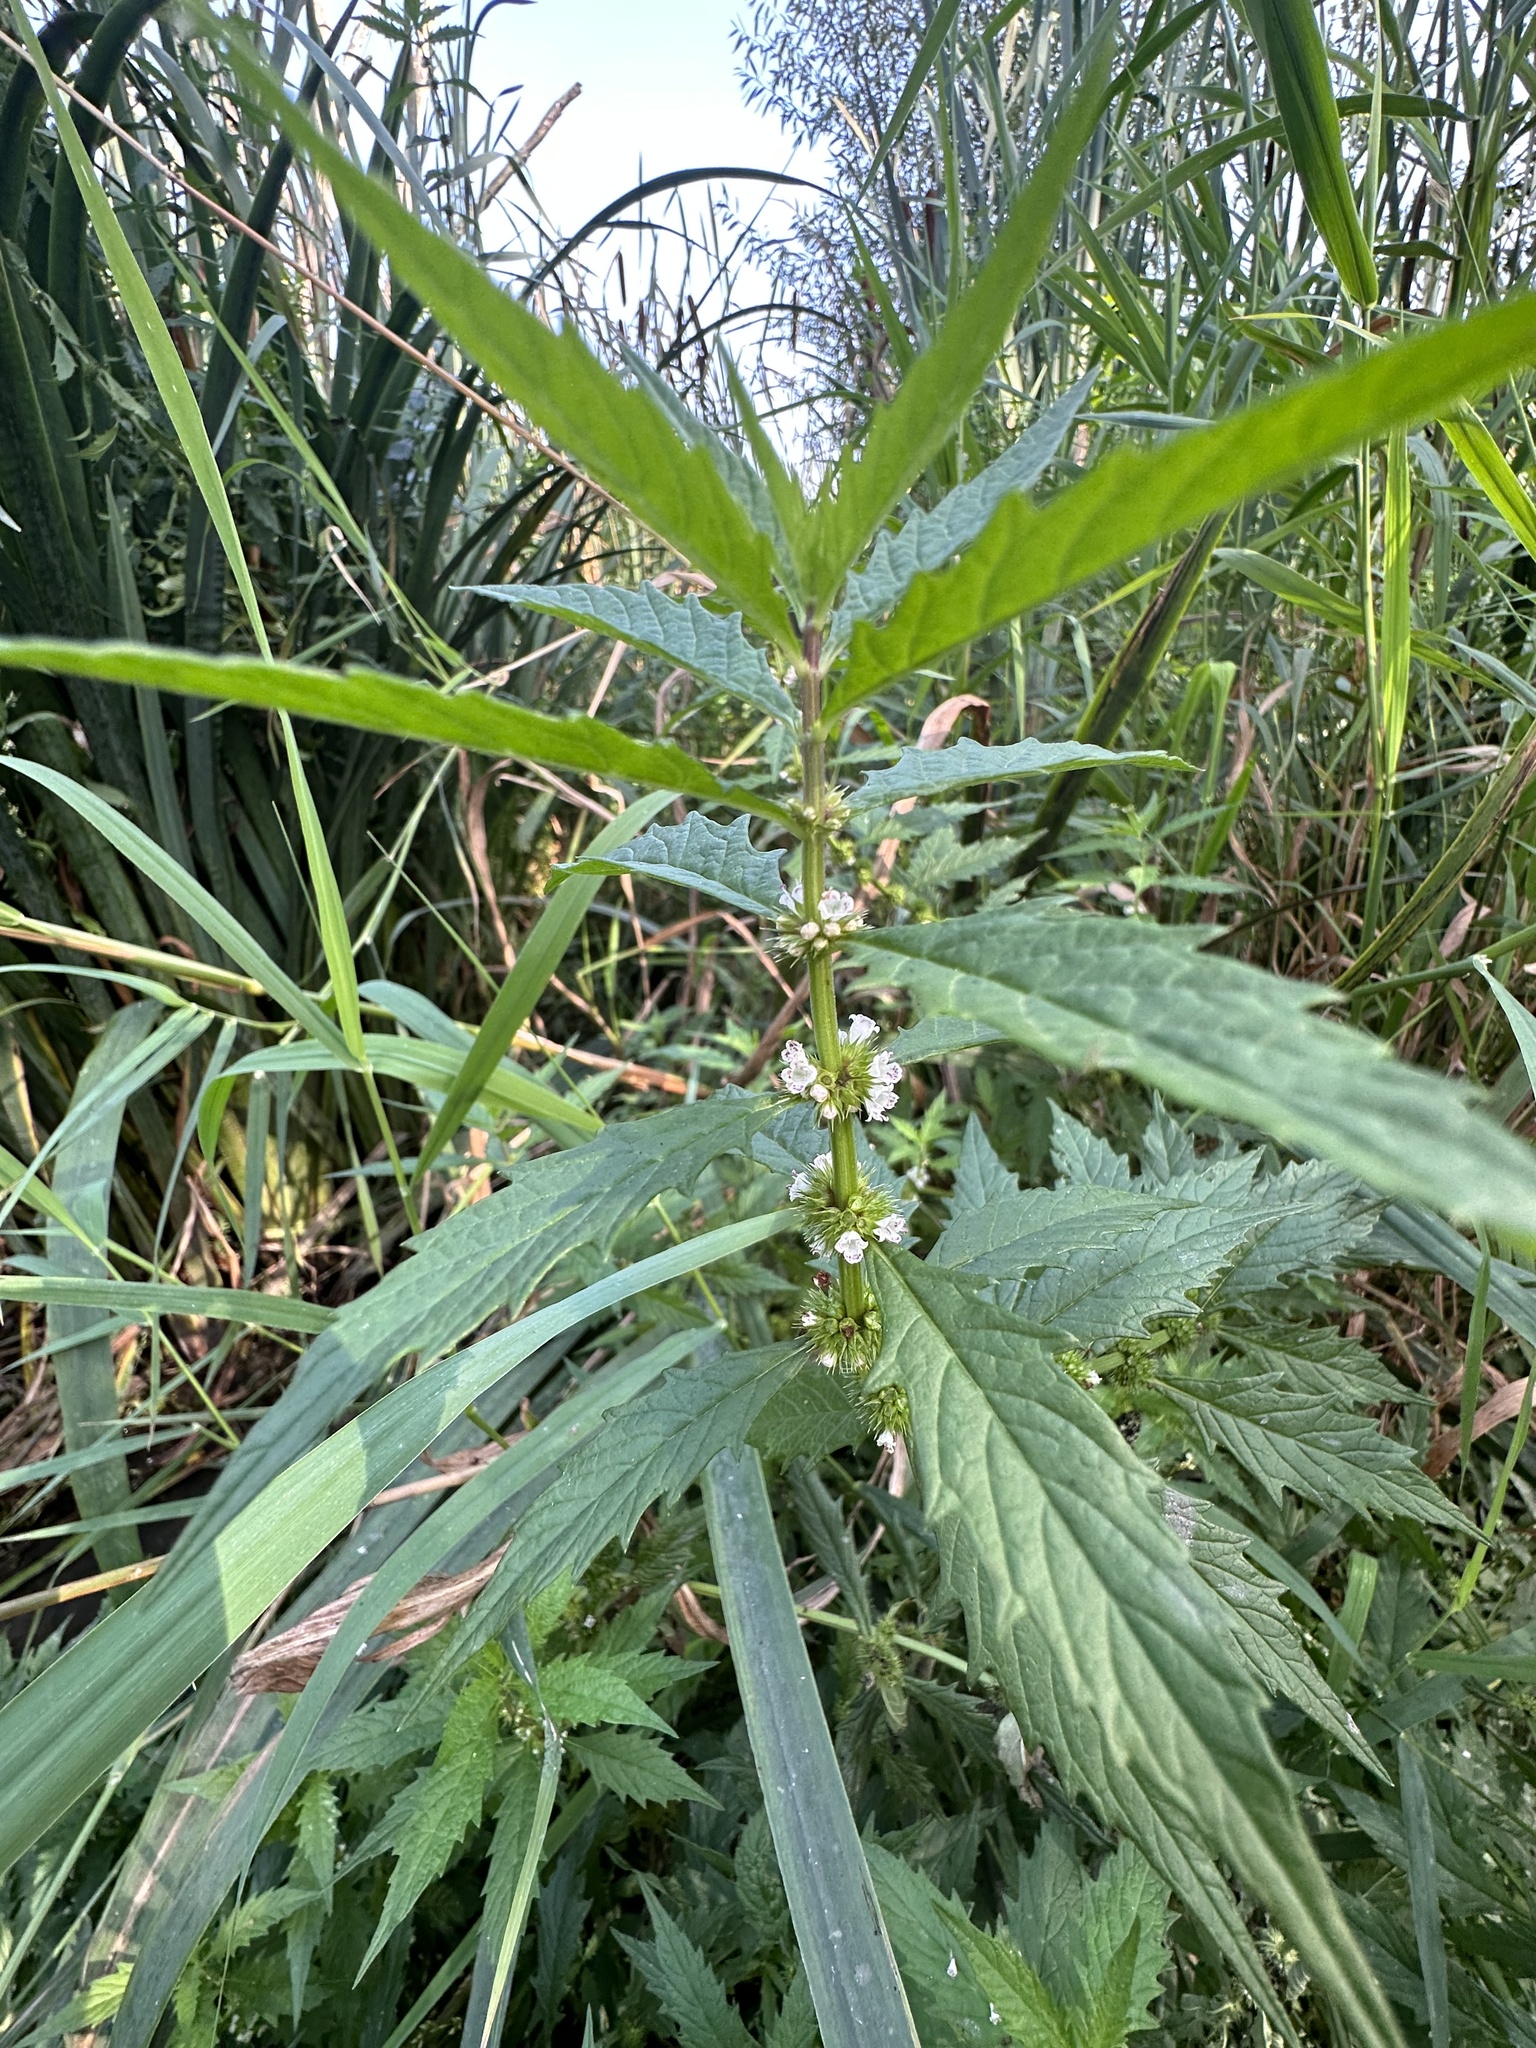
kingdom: Plantae
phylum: Tracheophyta
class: Magnoliopsida
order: Lamiales
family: Lamiaceae
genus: Lycopus
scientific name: Lycopus europaeus
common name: European bugleweed
